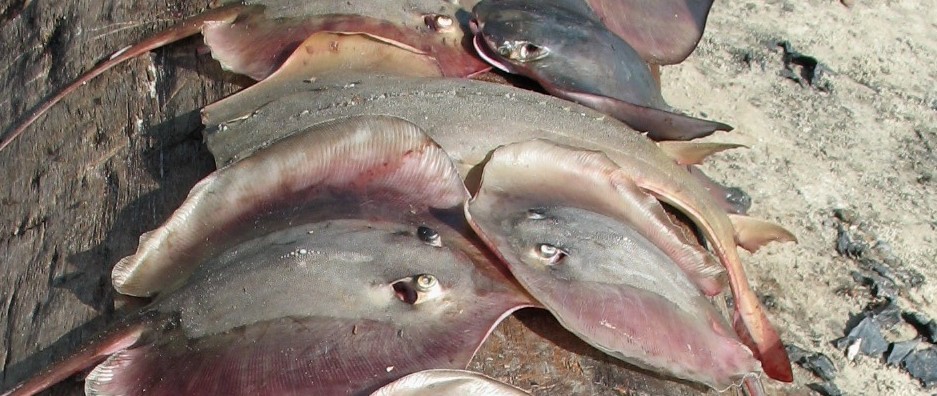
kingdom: Animalia
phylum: Chordata
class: Elasmobranchii
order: Rhinopristiformes
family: Glaucostegidae
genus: Glaucostegus
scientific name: Glaucostegus cemiculus
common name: Blackchin guitarfish
